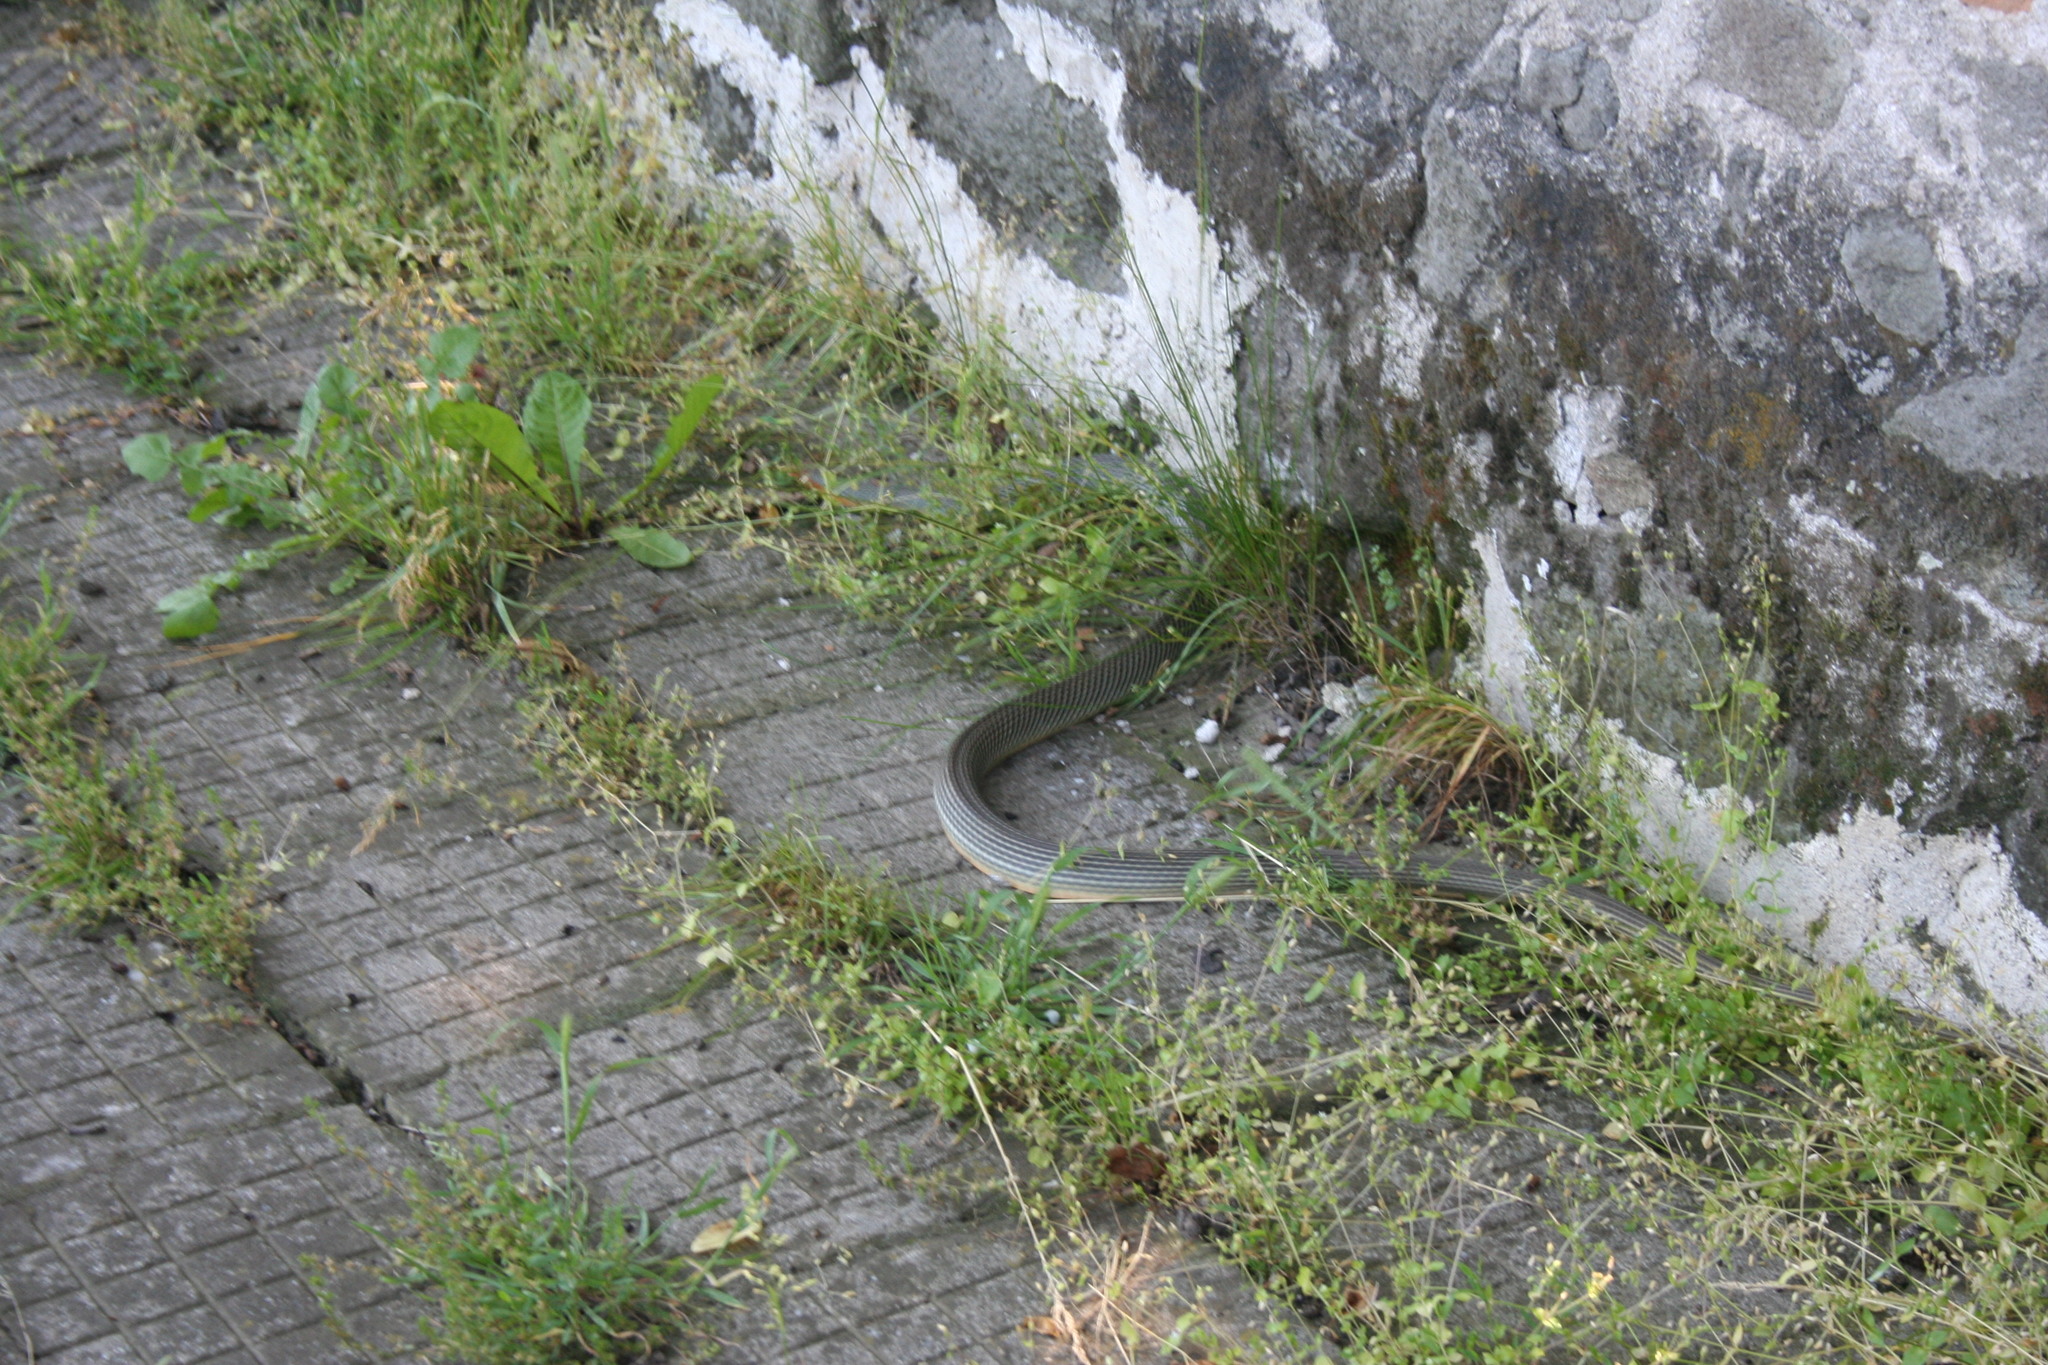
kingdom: Animalia
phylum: Chordata
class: Squamata
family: Colubridae
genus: Dolichophis
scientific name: Dolichophis caspius
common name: Large whip snake
